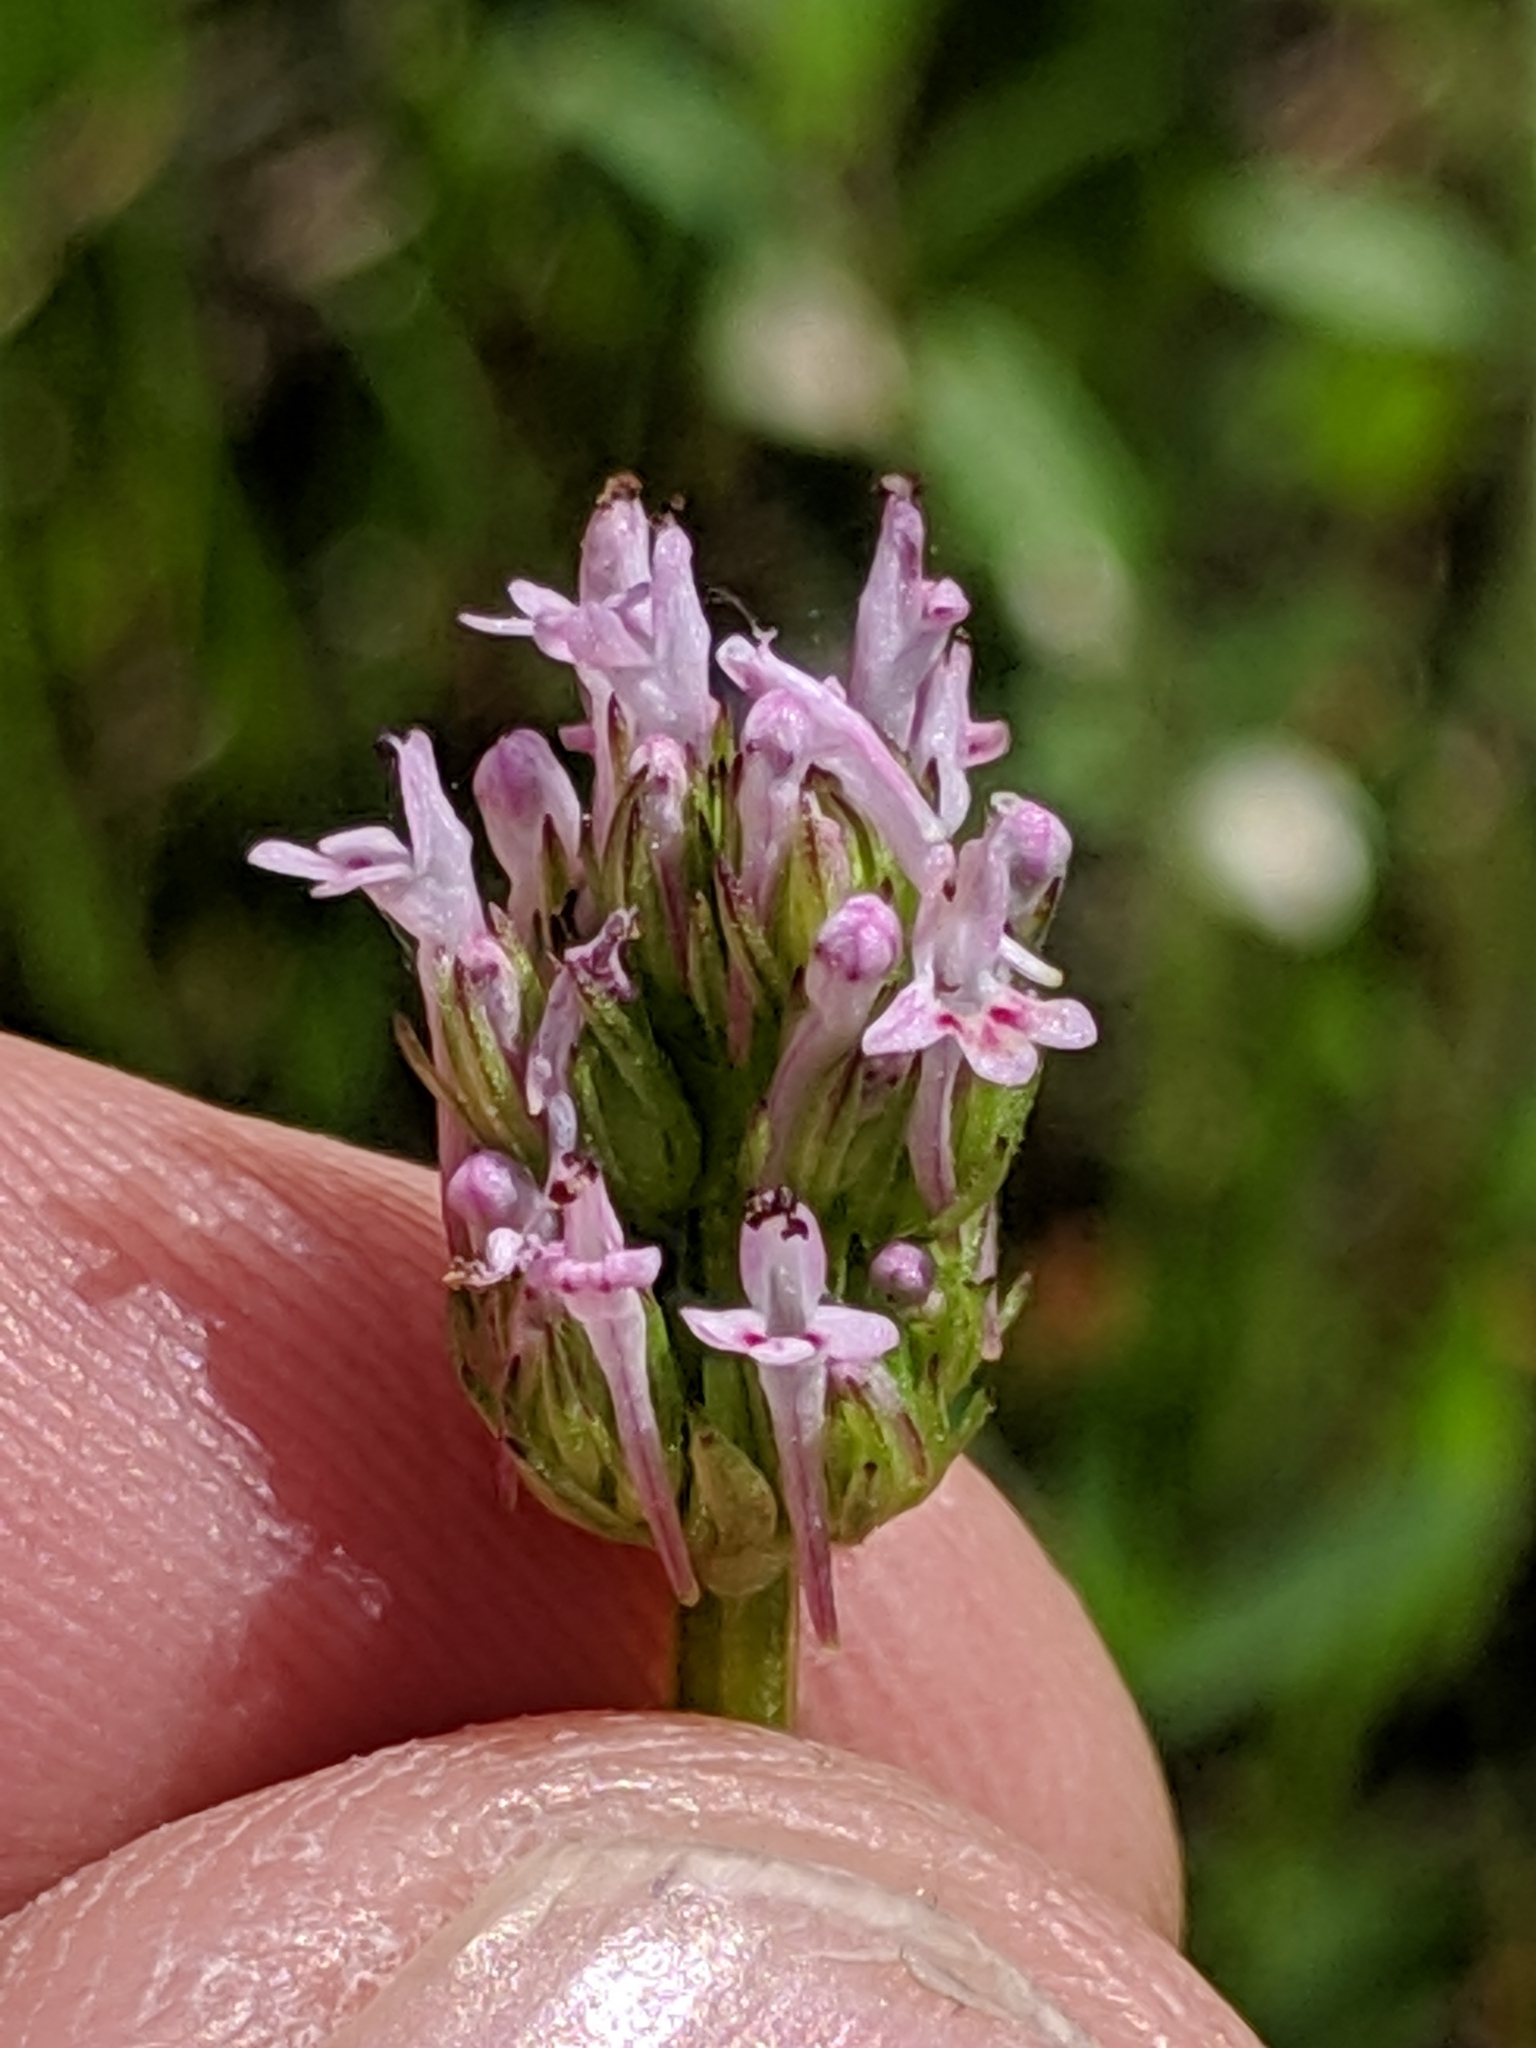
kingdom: Plantae
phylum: Tracheophyta
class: Magnoliopsida
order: Dipsacales
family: Caprifoliaceae
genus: Plectritis
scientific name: Plectritis ciliosa
